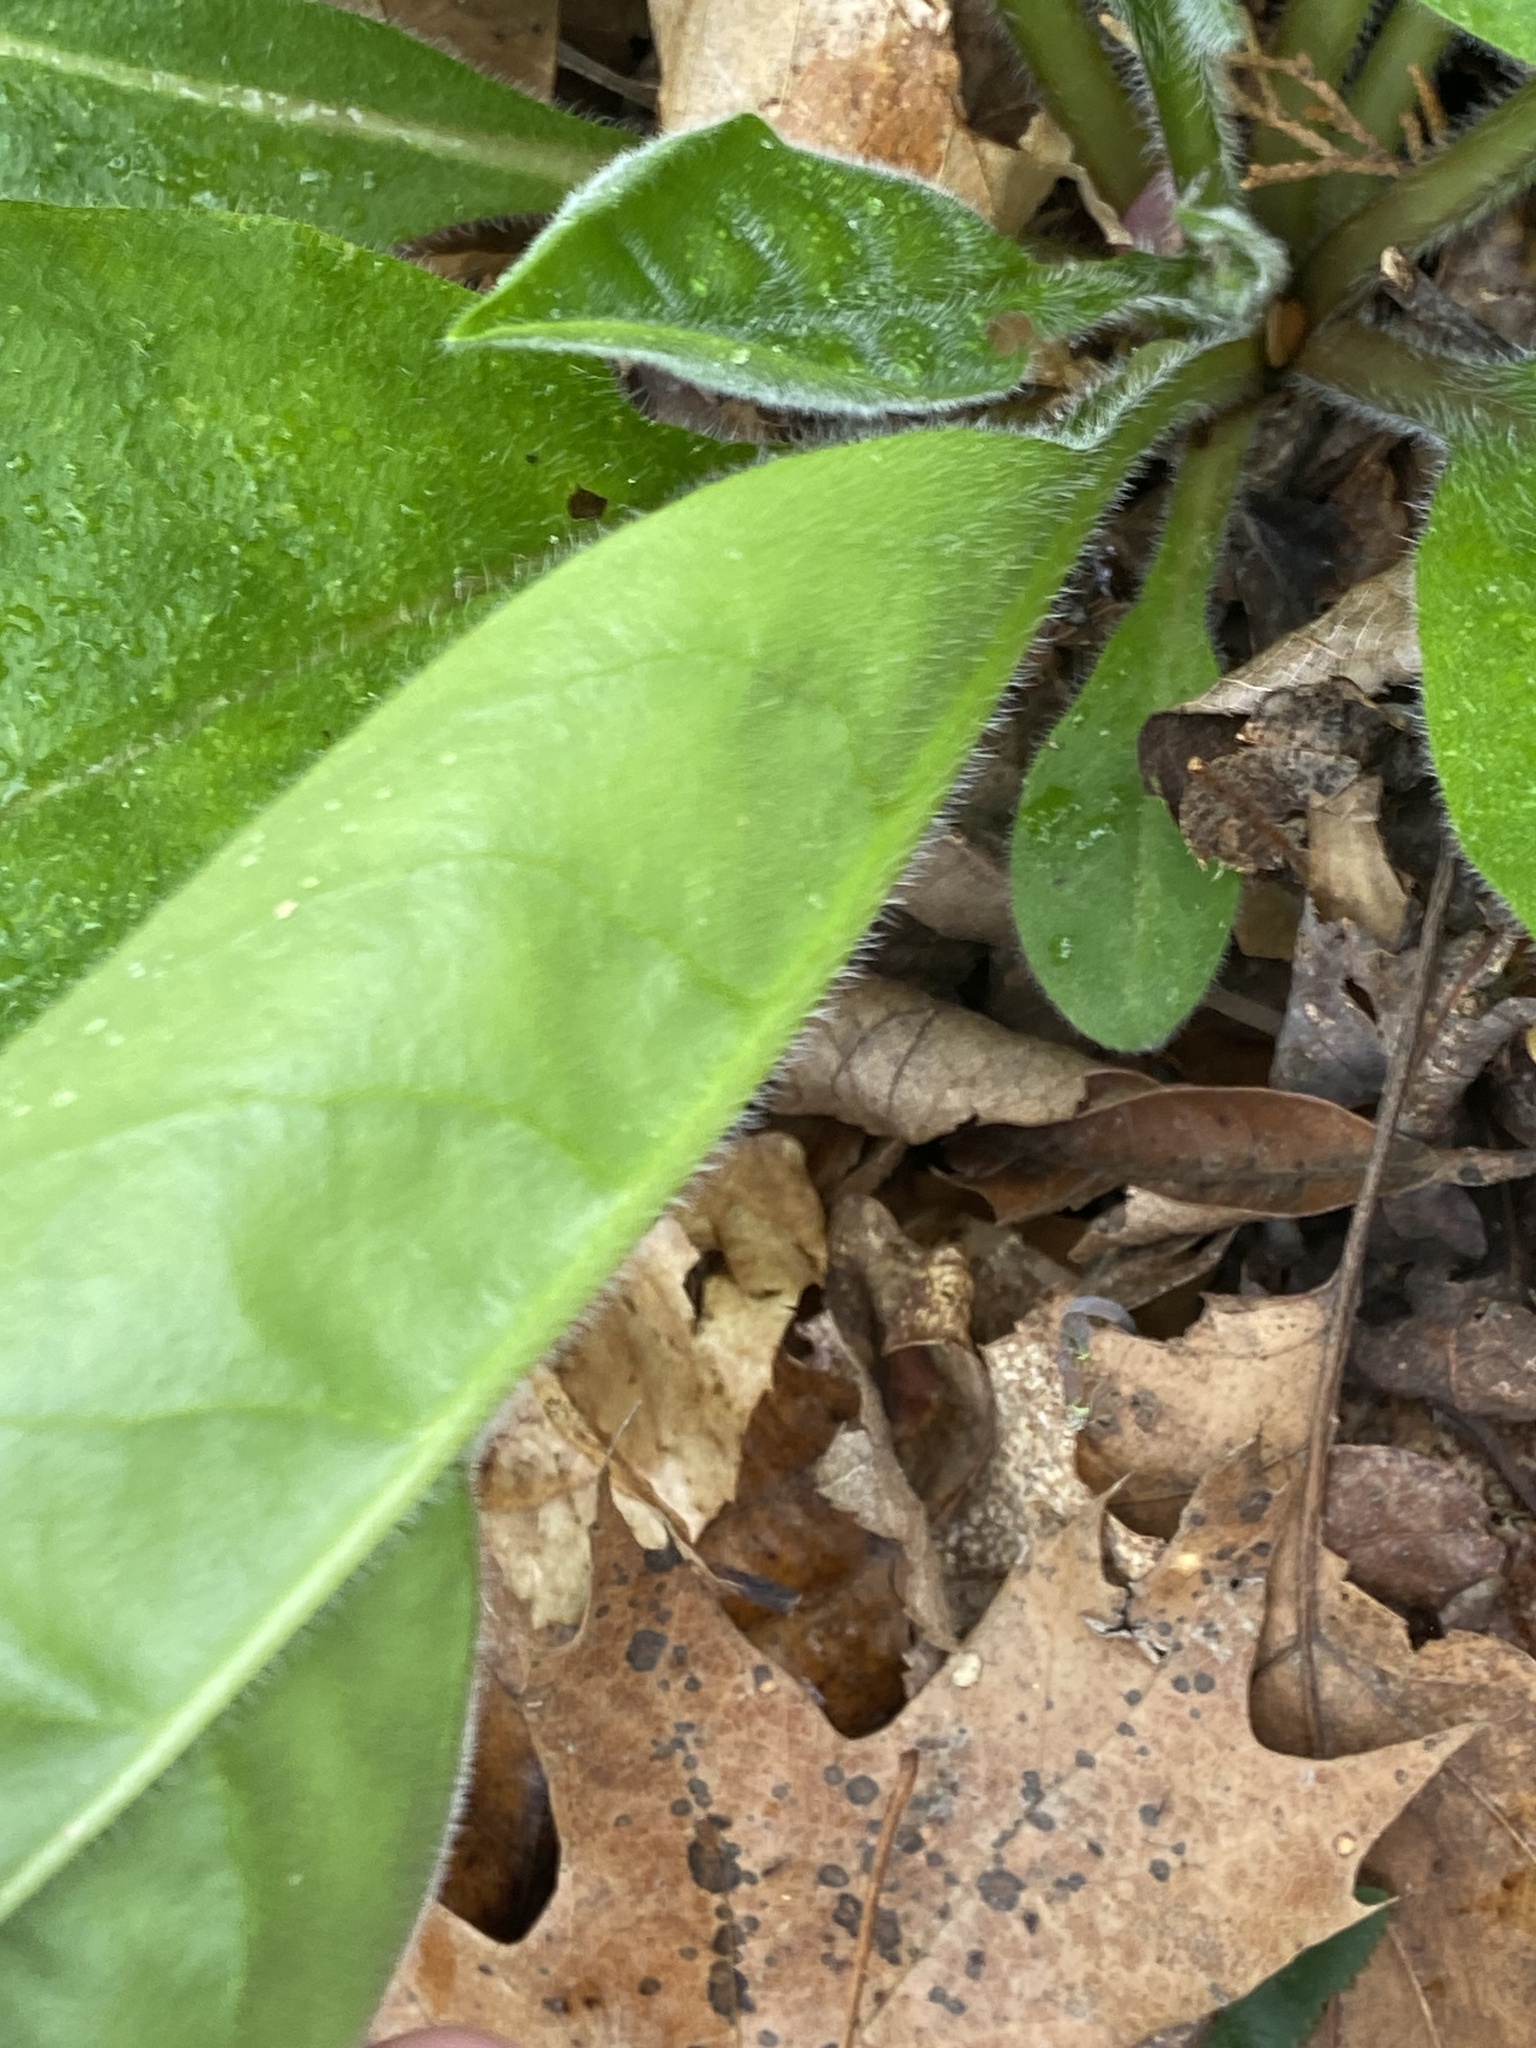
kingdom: Plantae
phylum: Tracheophyta
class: Magnoliopsida
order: Boraginales
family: Boraginaceae
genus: Andersonglossum
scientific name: Andersonglossum virginianum
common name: Wild comfrey
